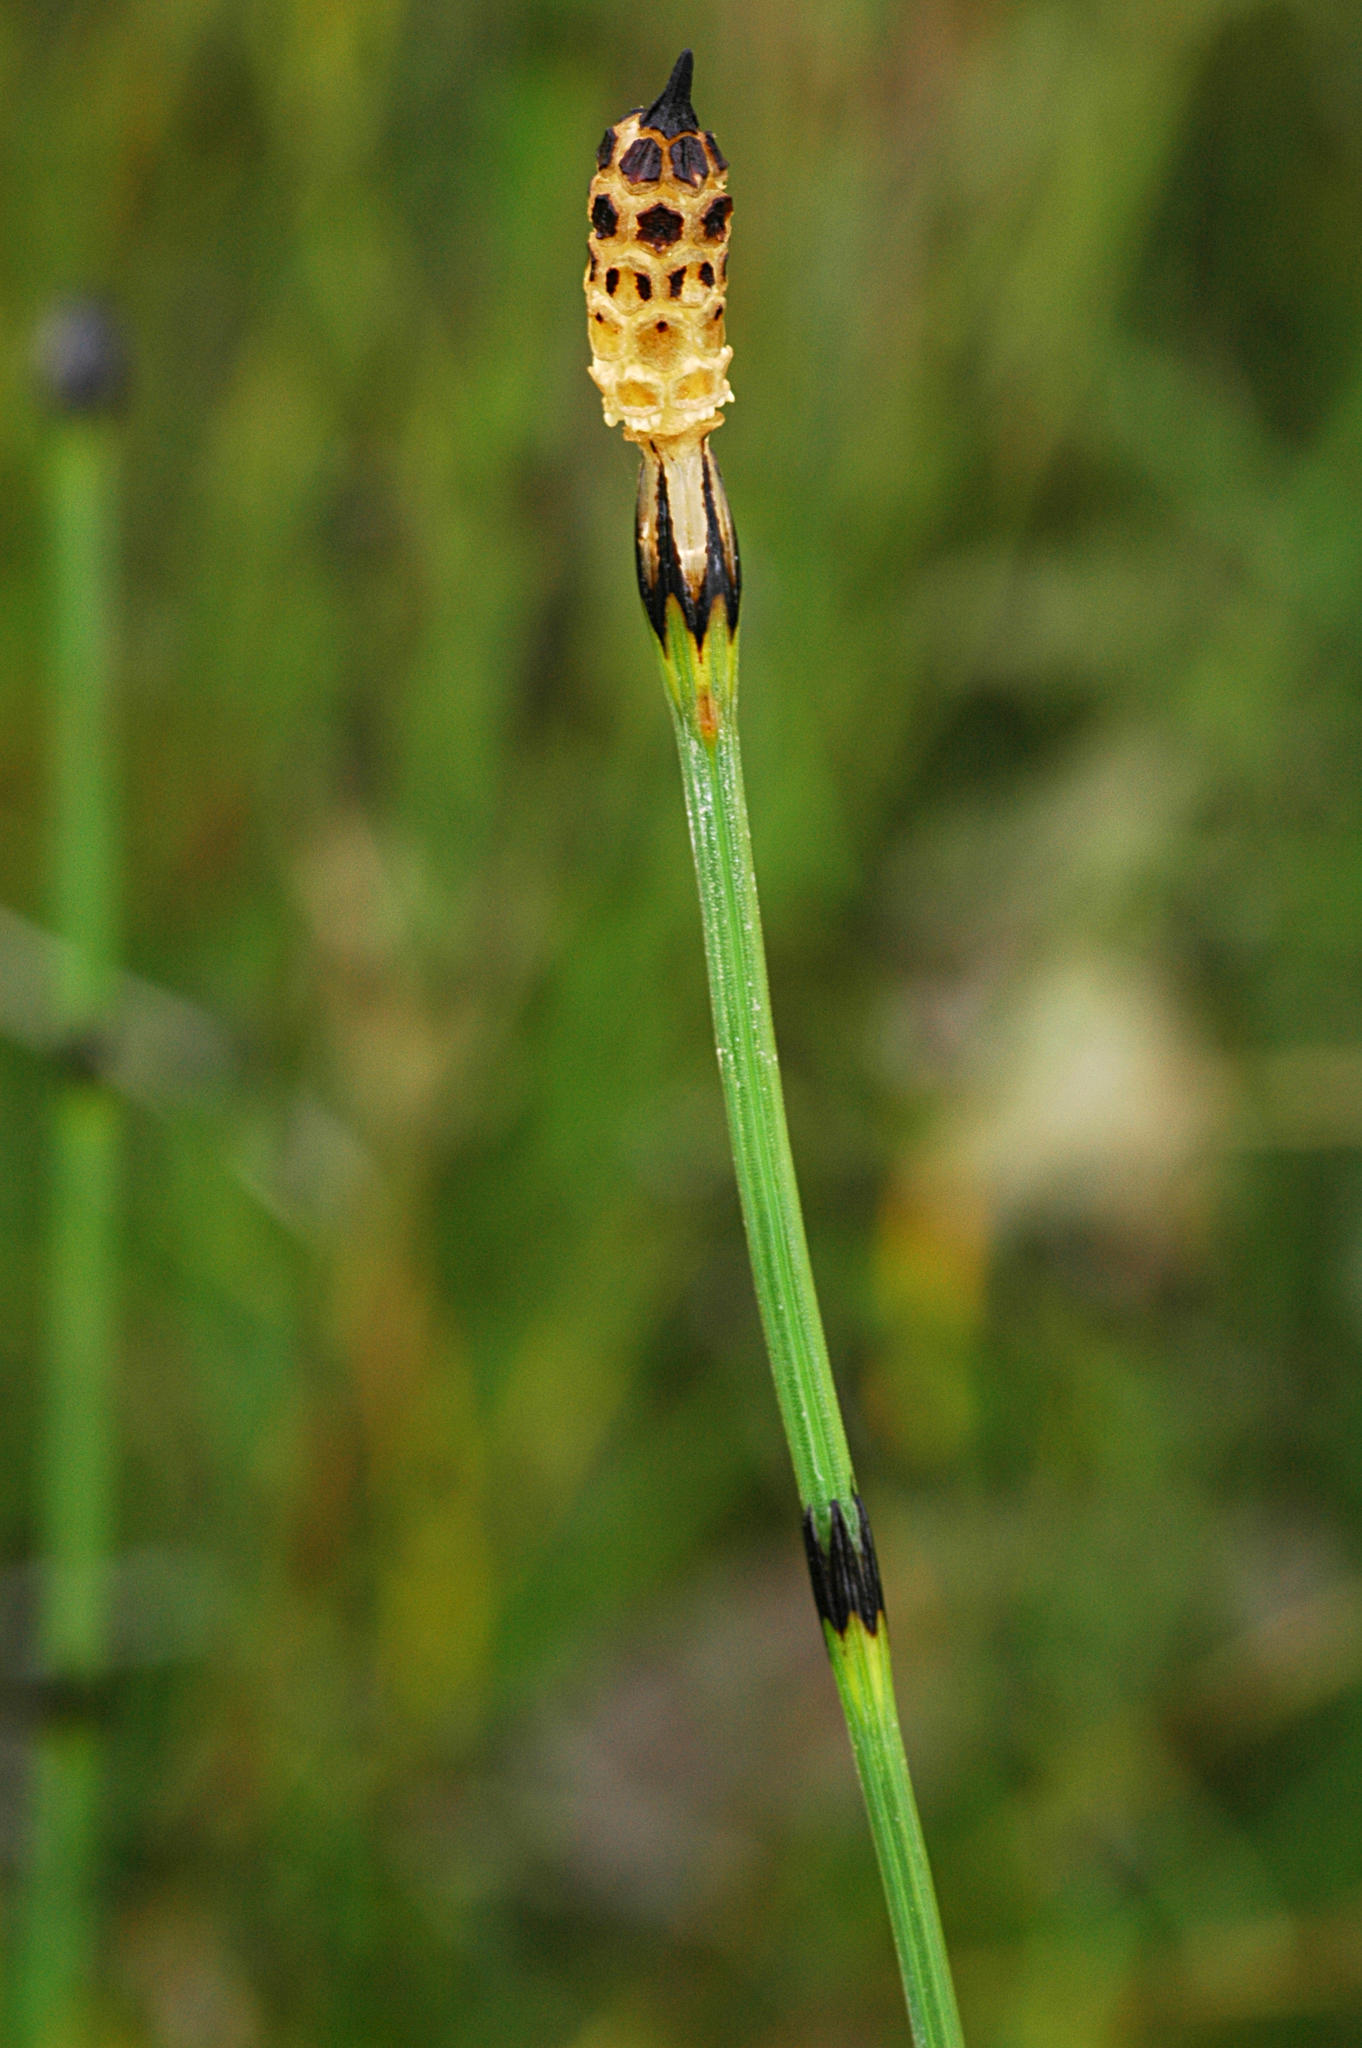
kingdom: Plantae
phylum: Tracheophyta
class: Polypodiopsida
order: Equisetales
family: Equisetaceae
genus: Equisetum
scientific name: Equisetum variegatum
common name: Variegated horsetail
